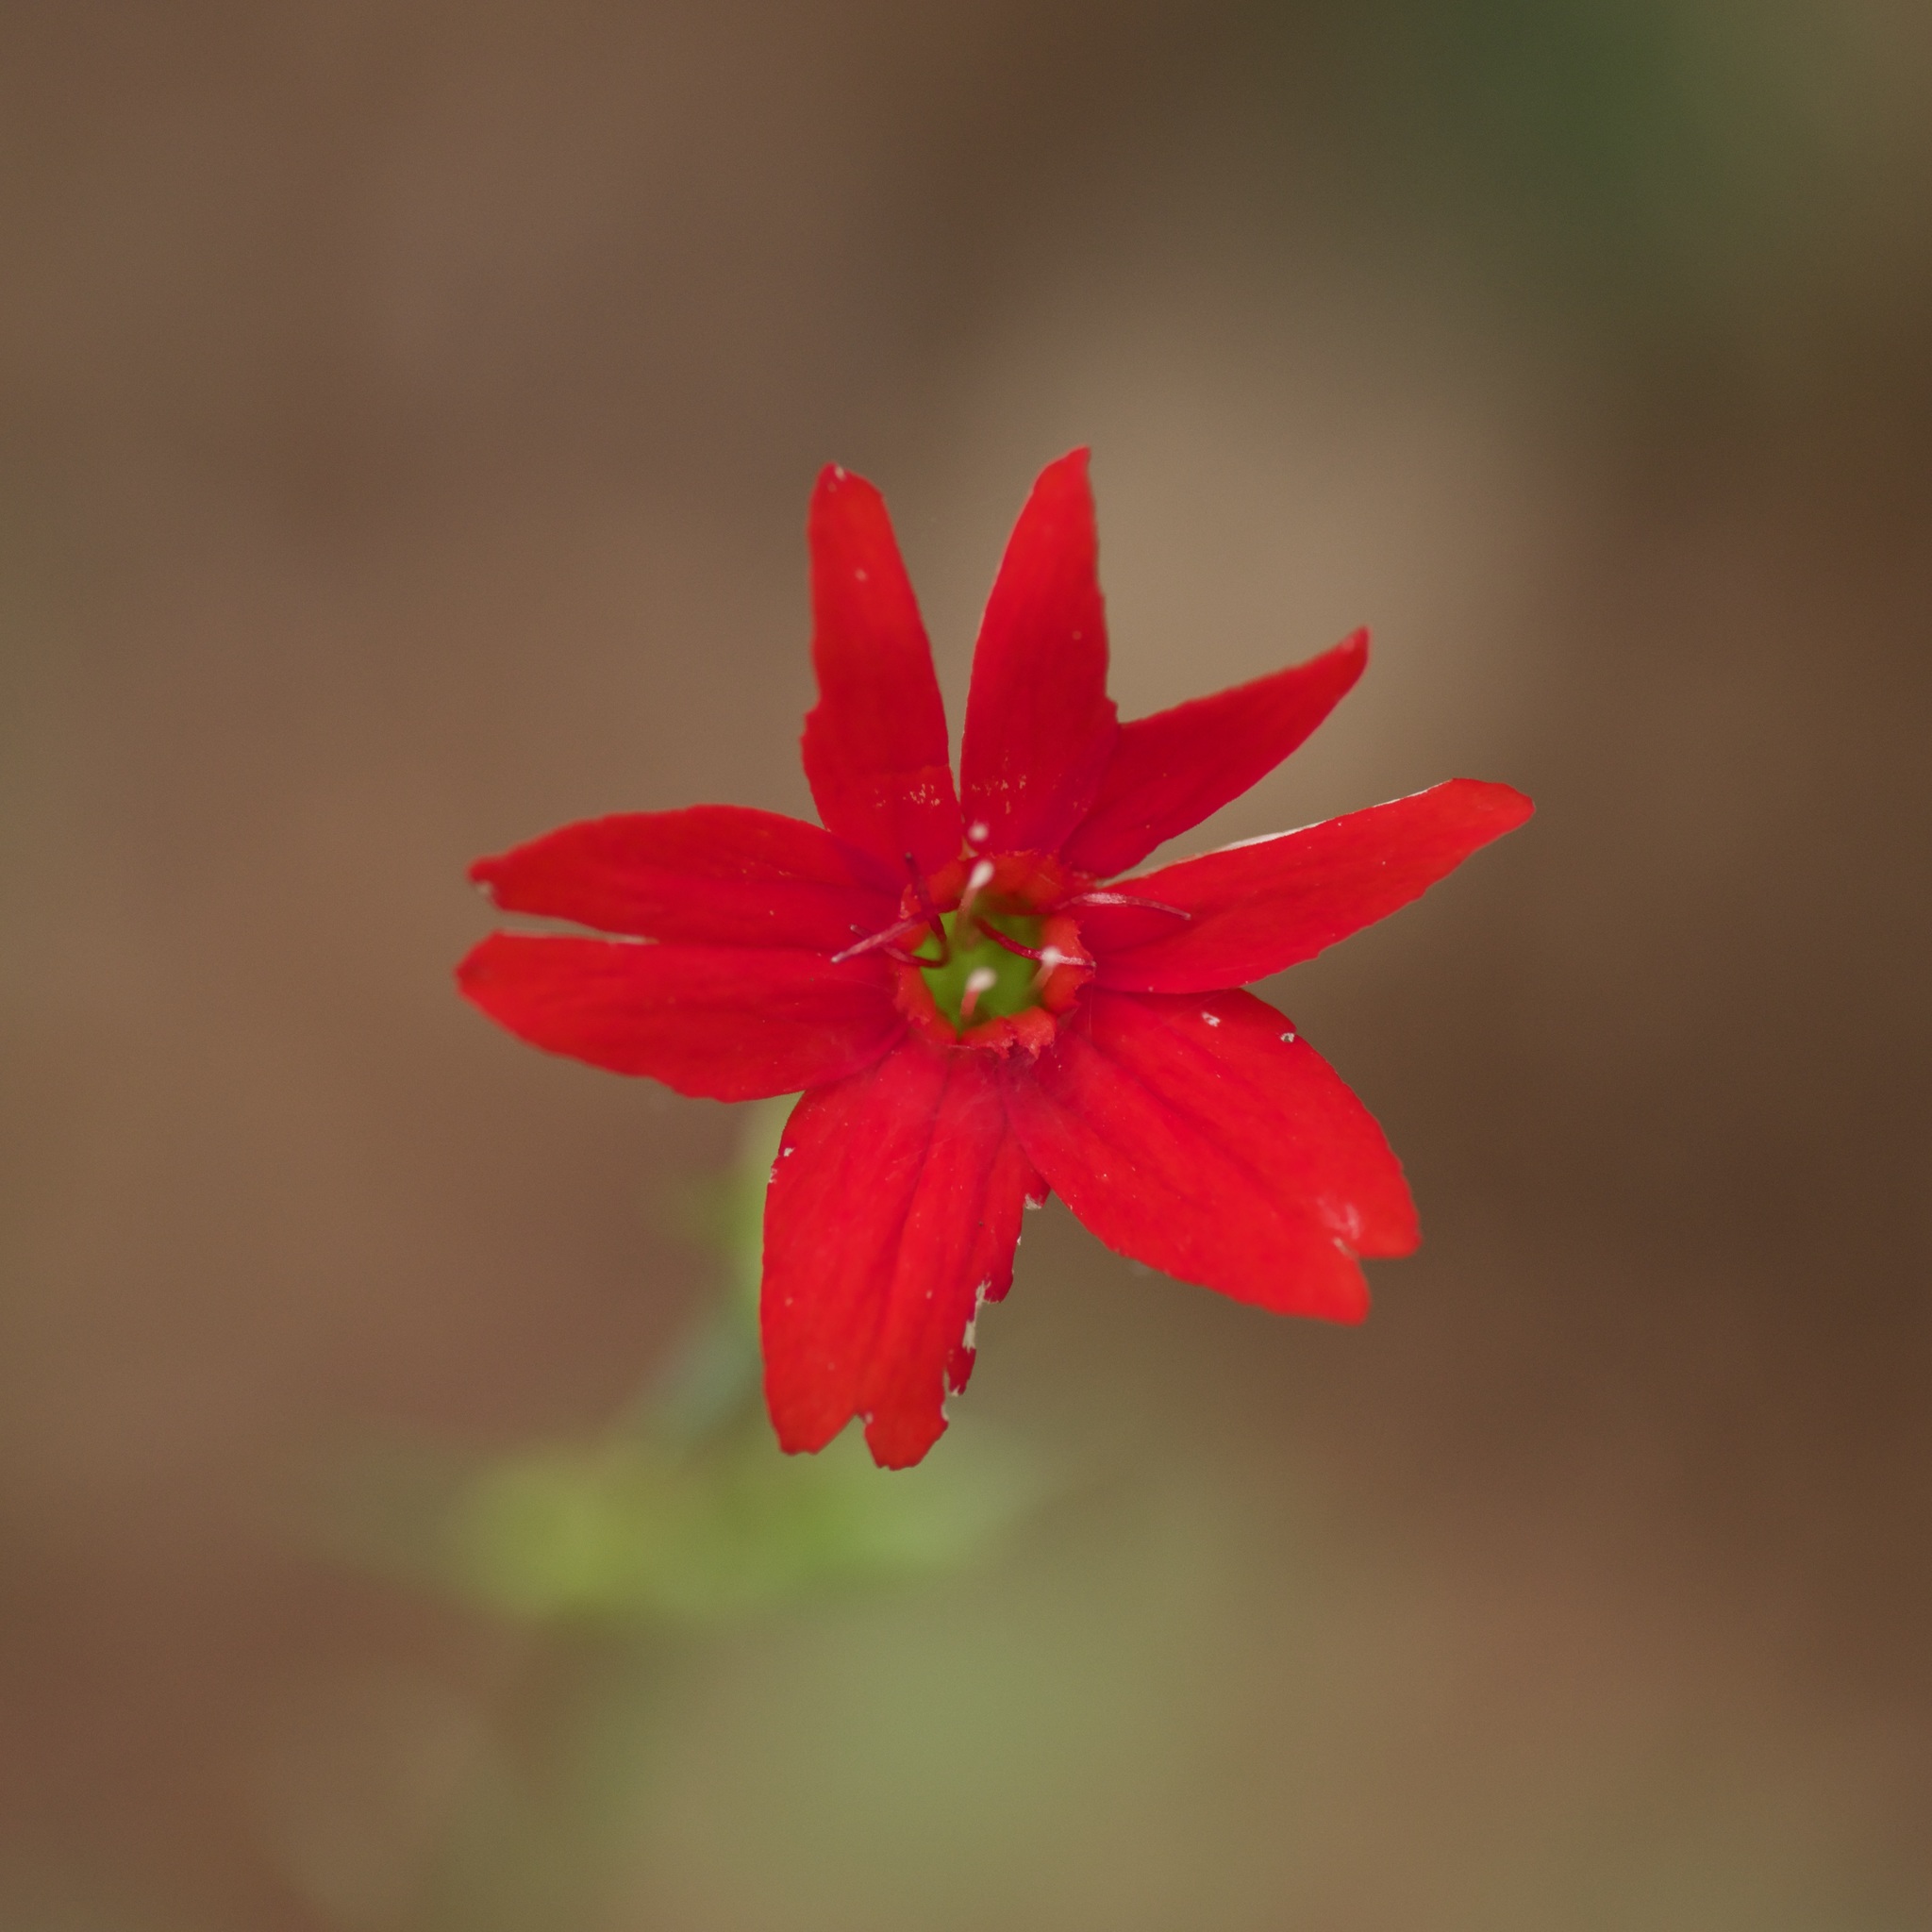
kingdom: Plantae
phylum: Tracheophyta
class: Magnoliopsida
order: Caryophyllales
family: Caryophyllaceae
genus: Silene
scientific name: Silene subciliata
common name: Prairie fire-pink
